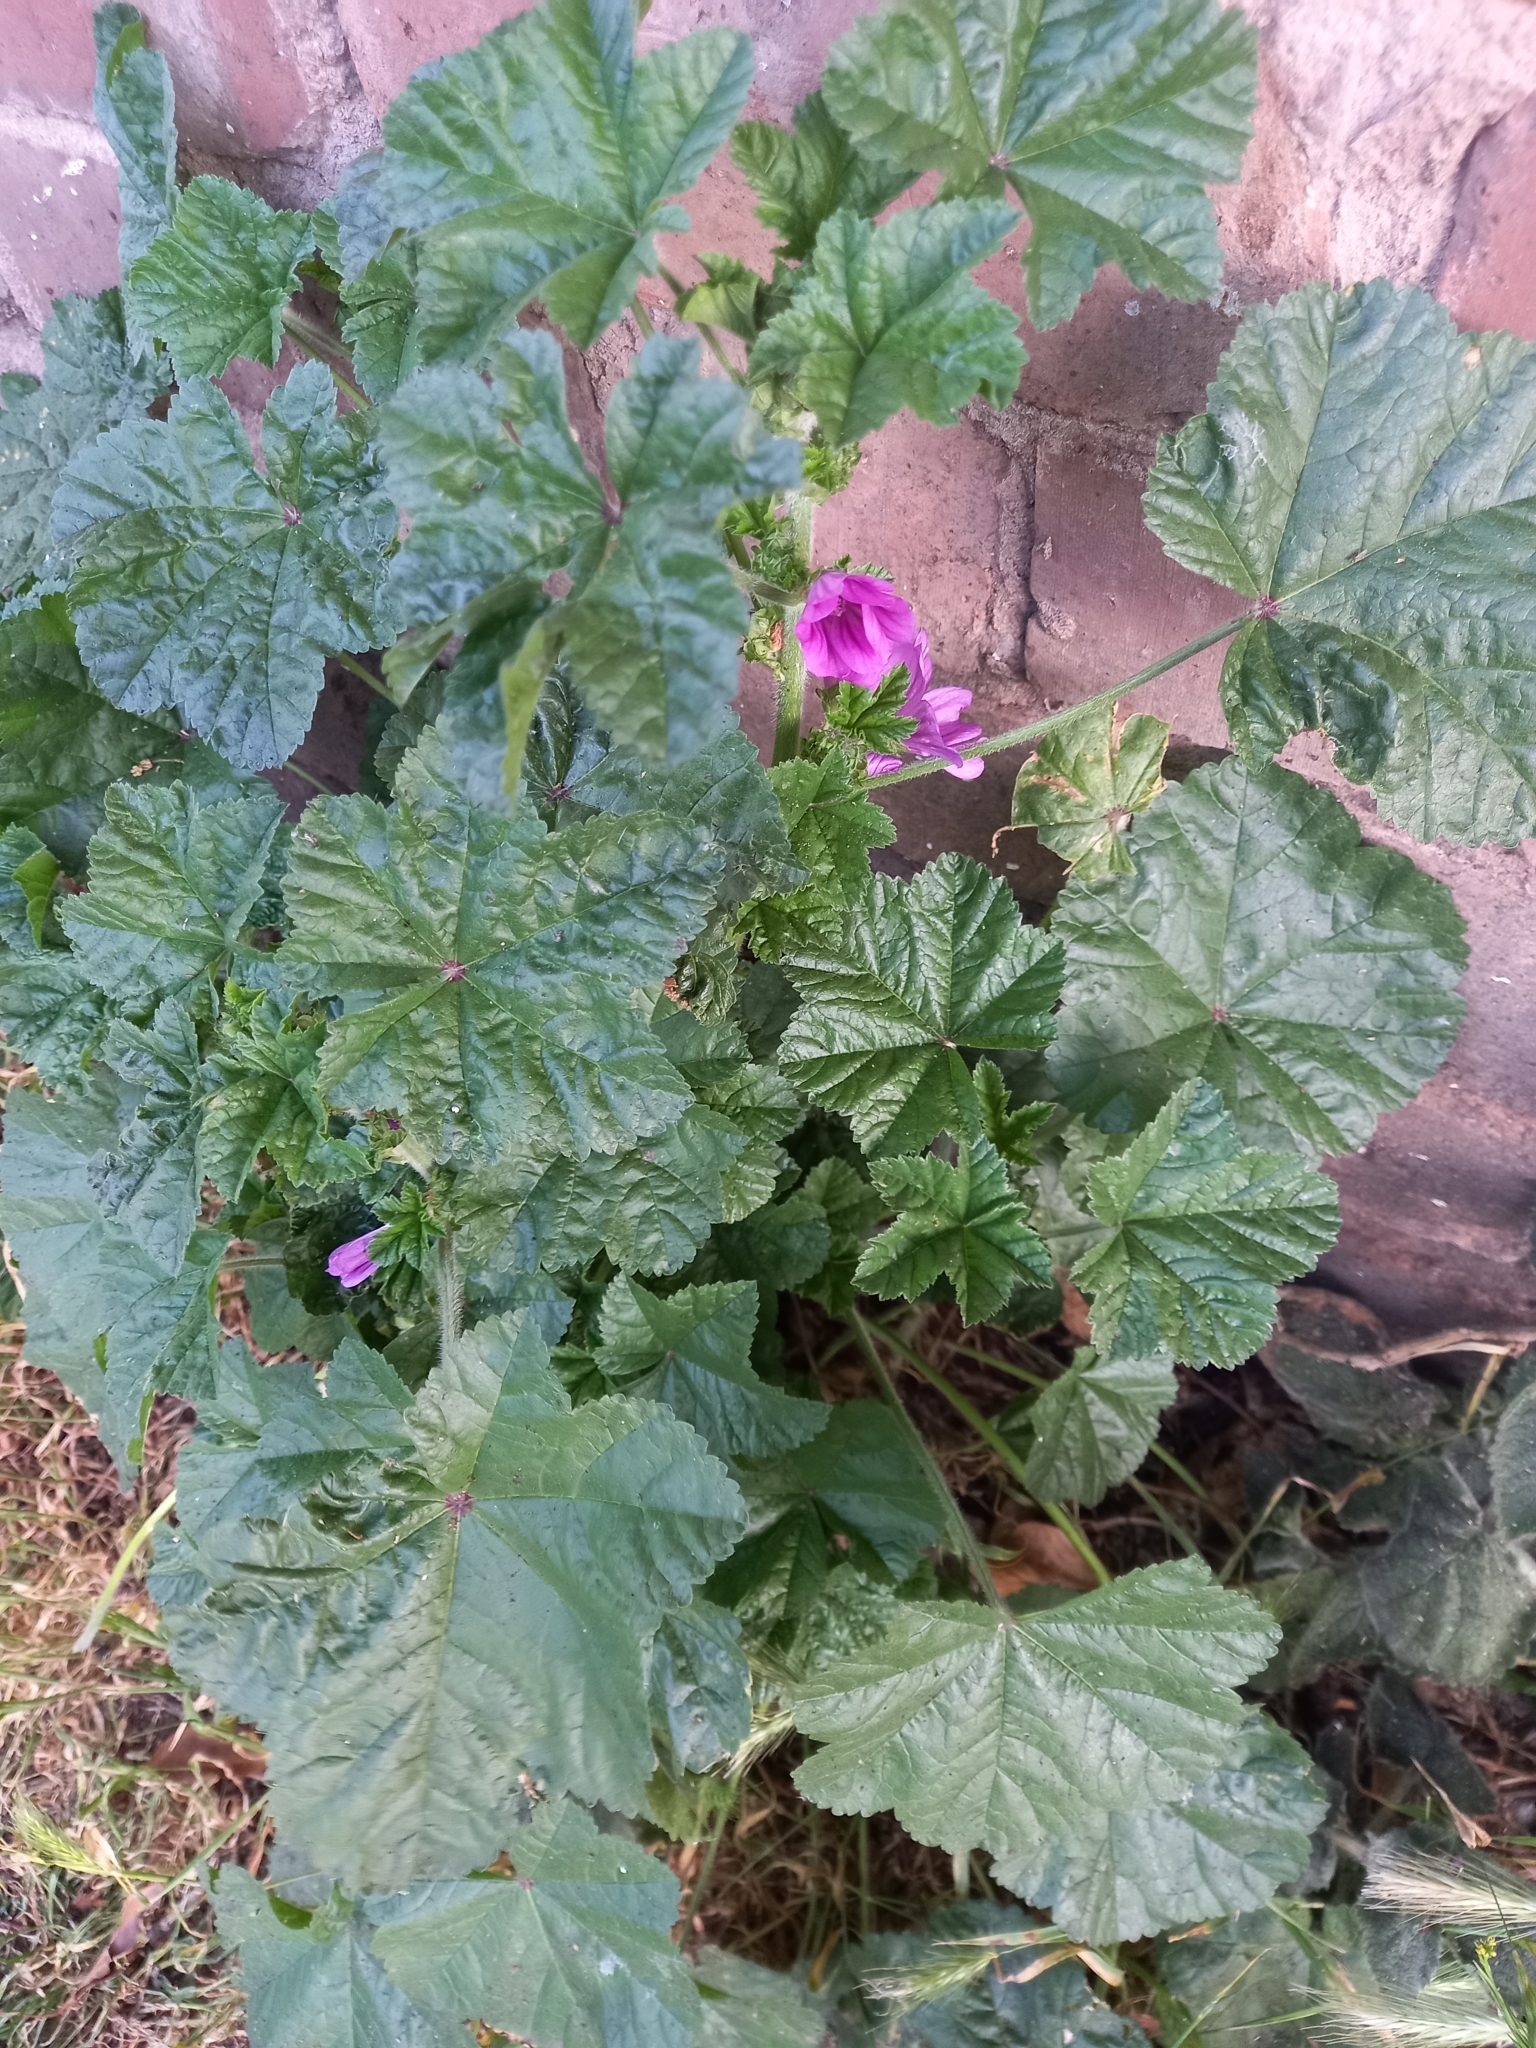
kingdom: Plantae
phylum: Tracheophyta
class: Magnoliopsida
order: Malvales
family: Malvaceae
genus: Malva
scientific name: Malva sylvestris
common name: Common mallow
